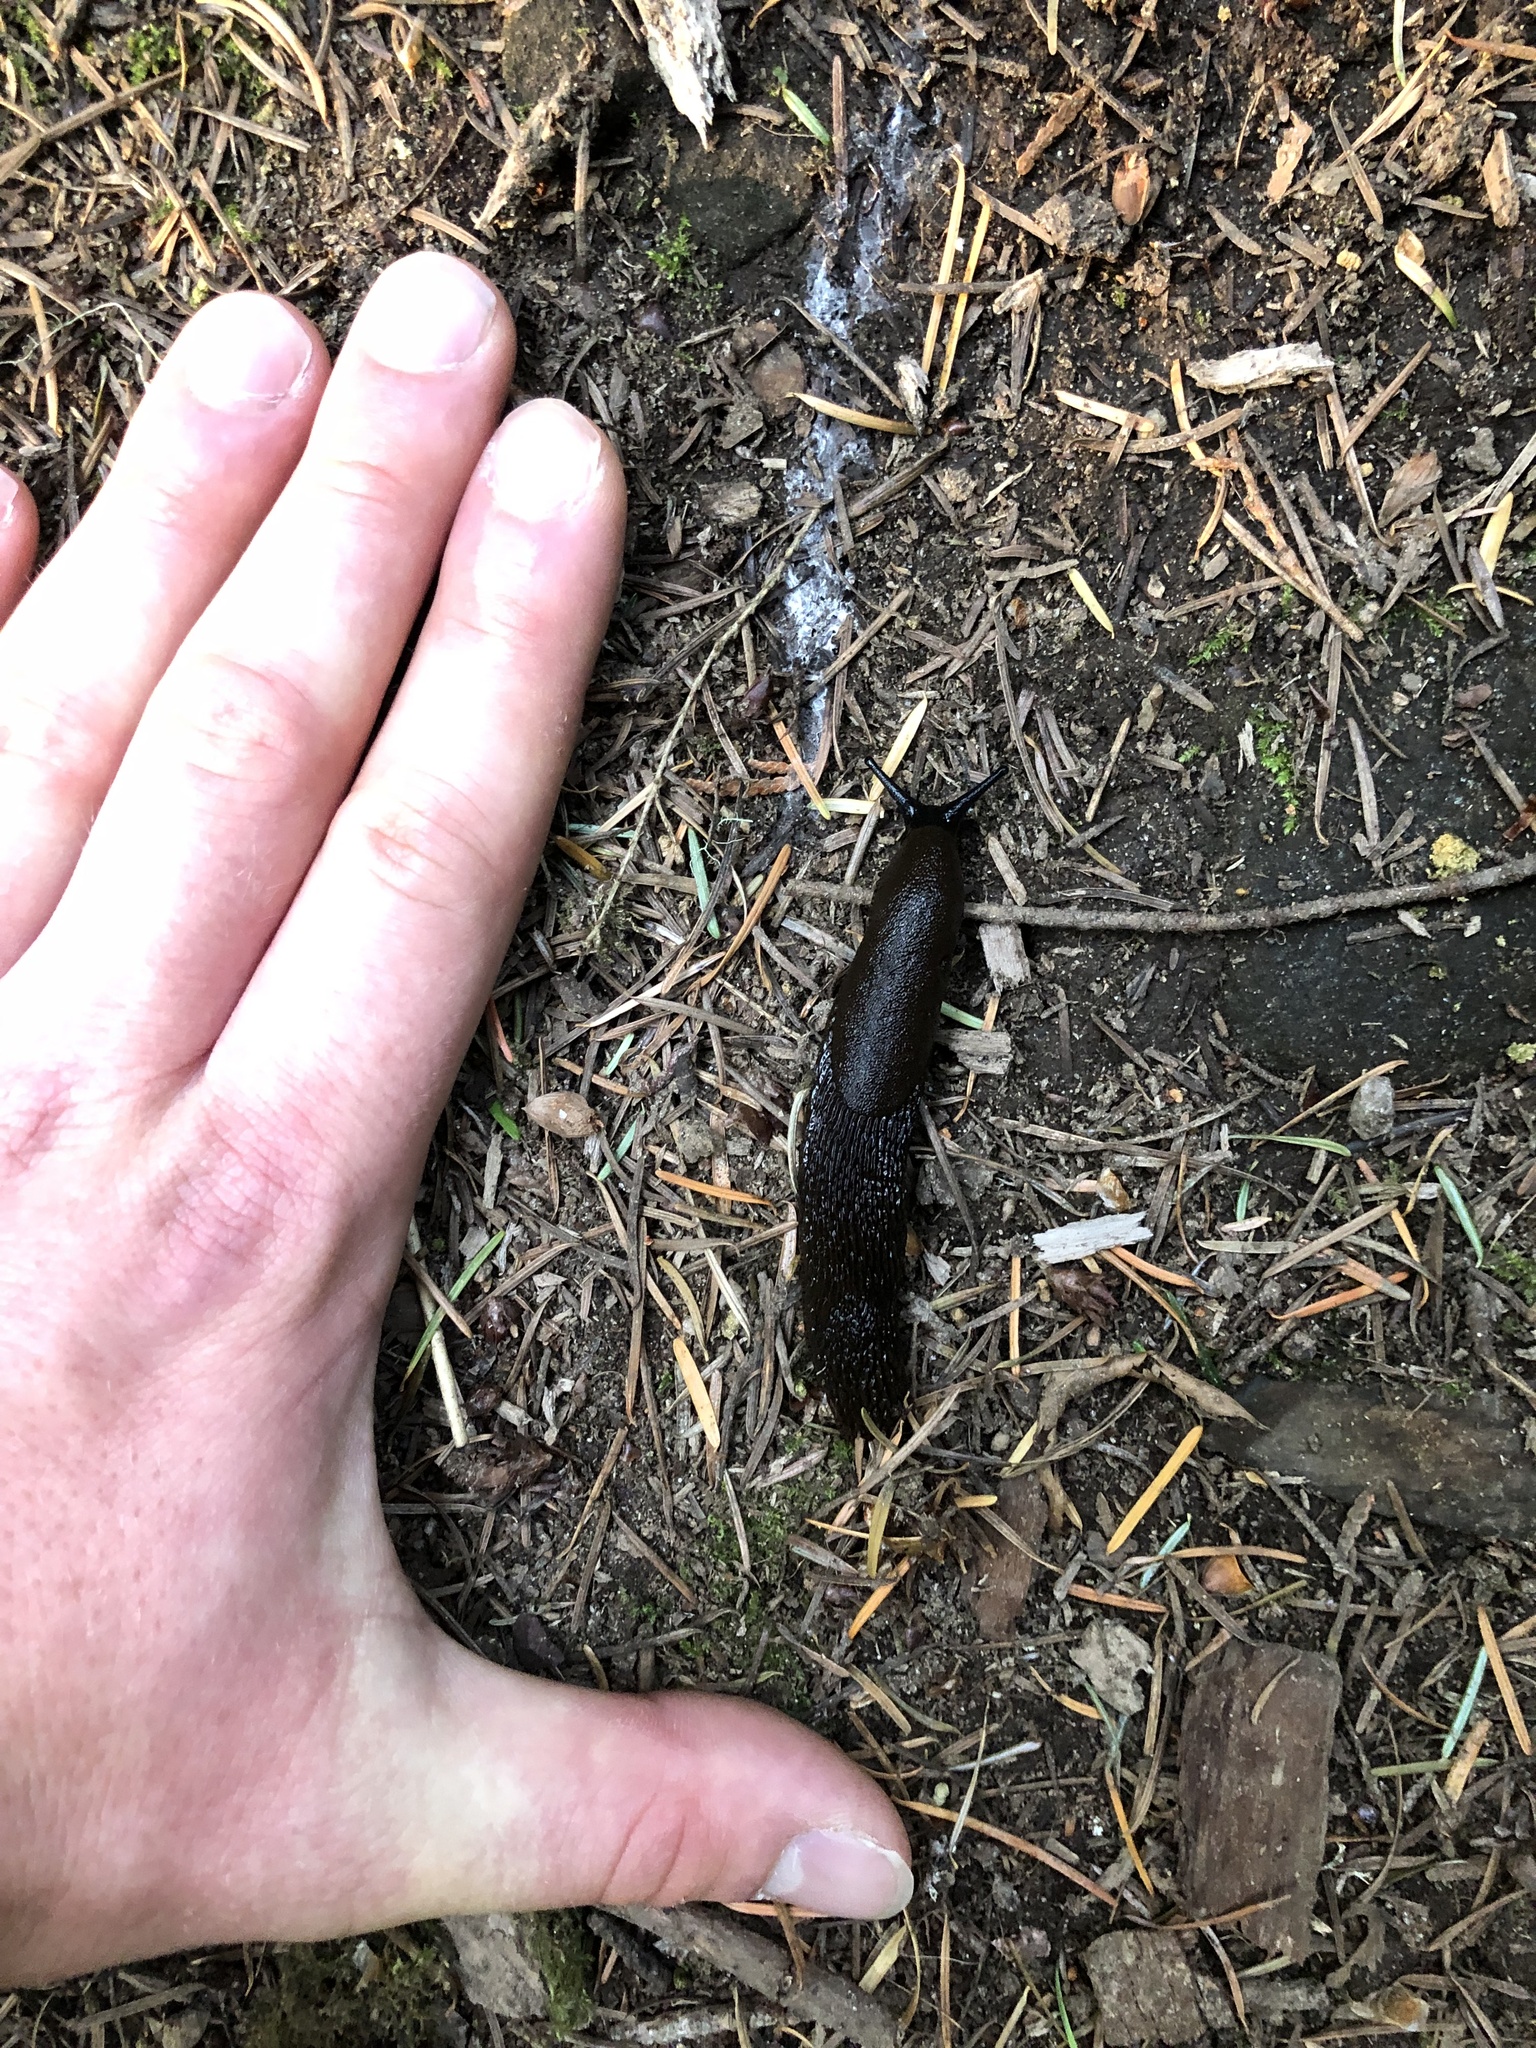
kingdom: Animalia
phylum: Mollusca
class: Gastropoda
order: Stylommatophora
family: Arionidae
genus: Arion
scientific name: Arion
